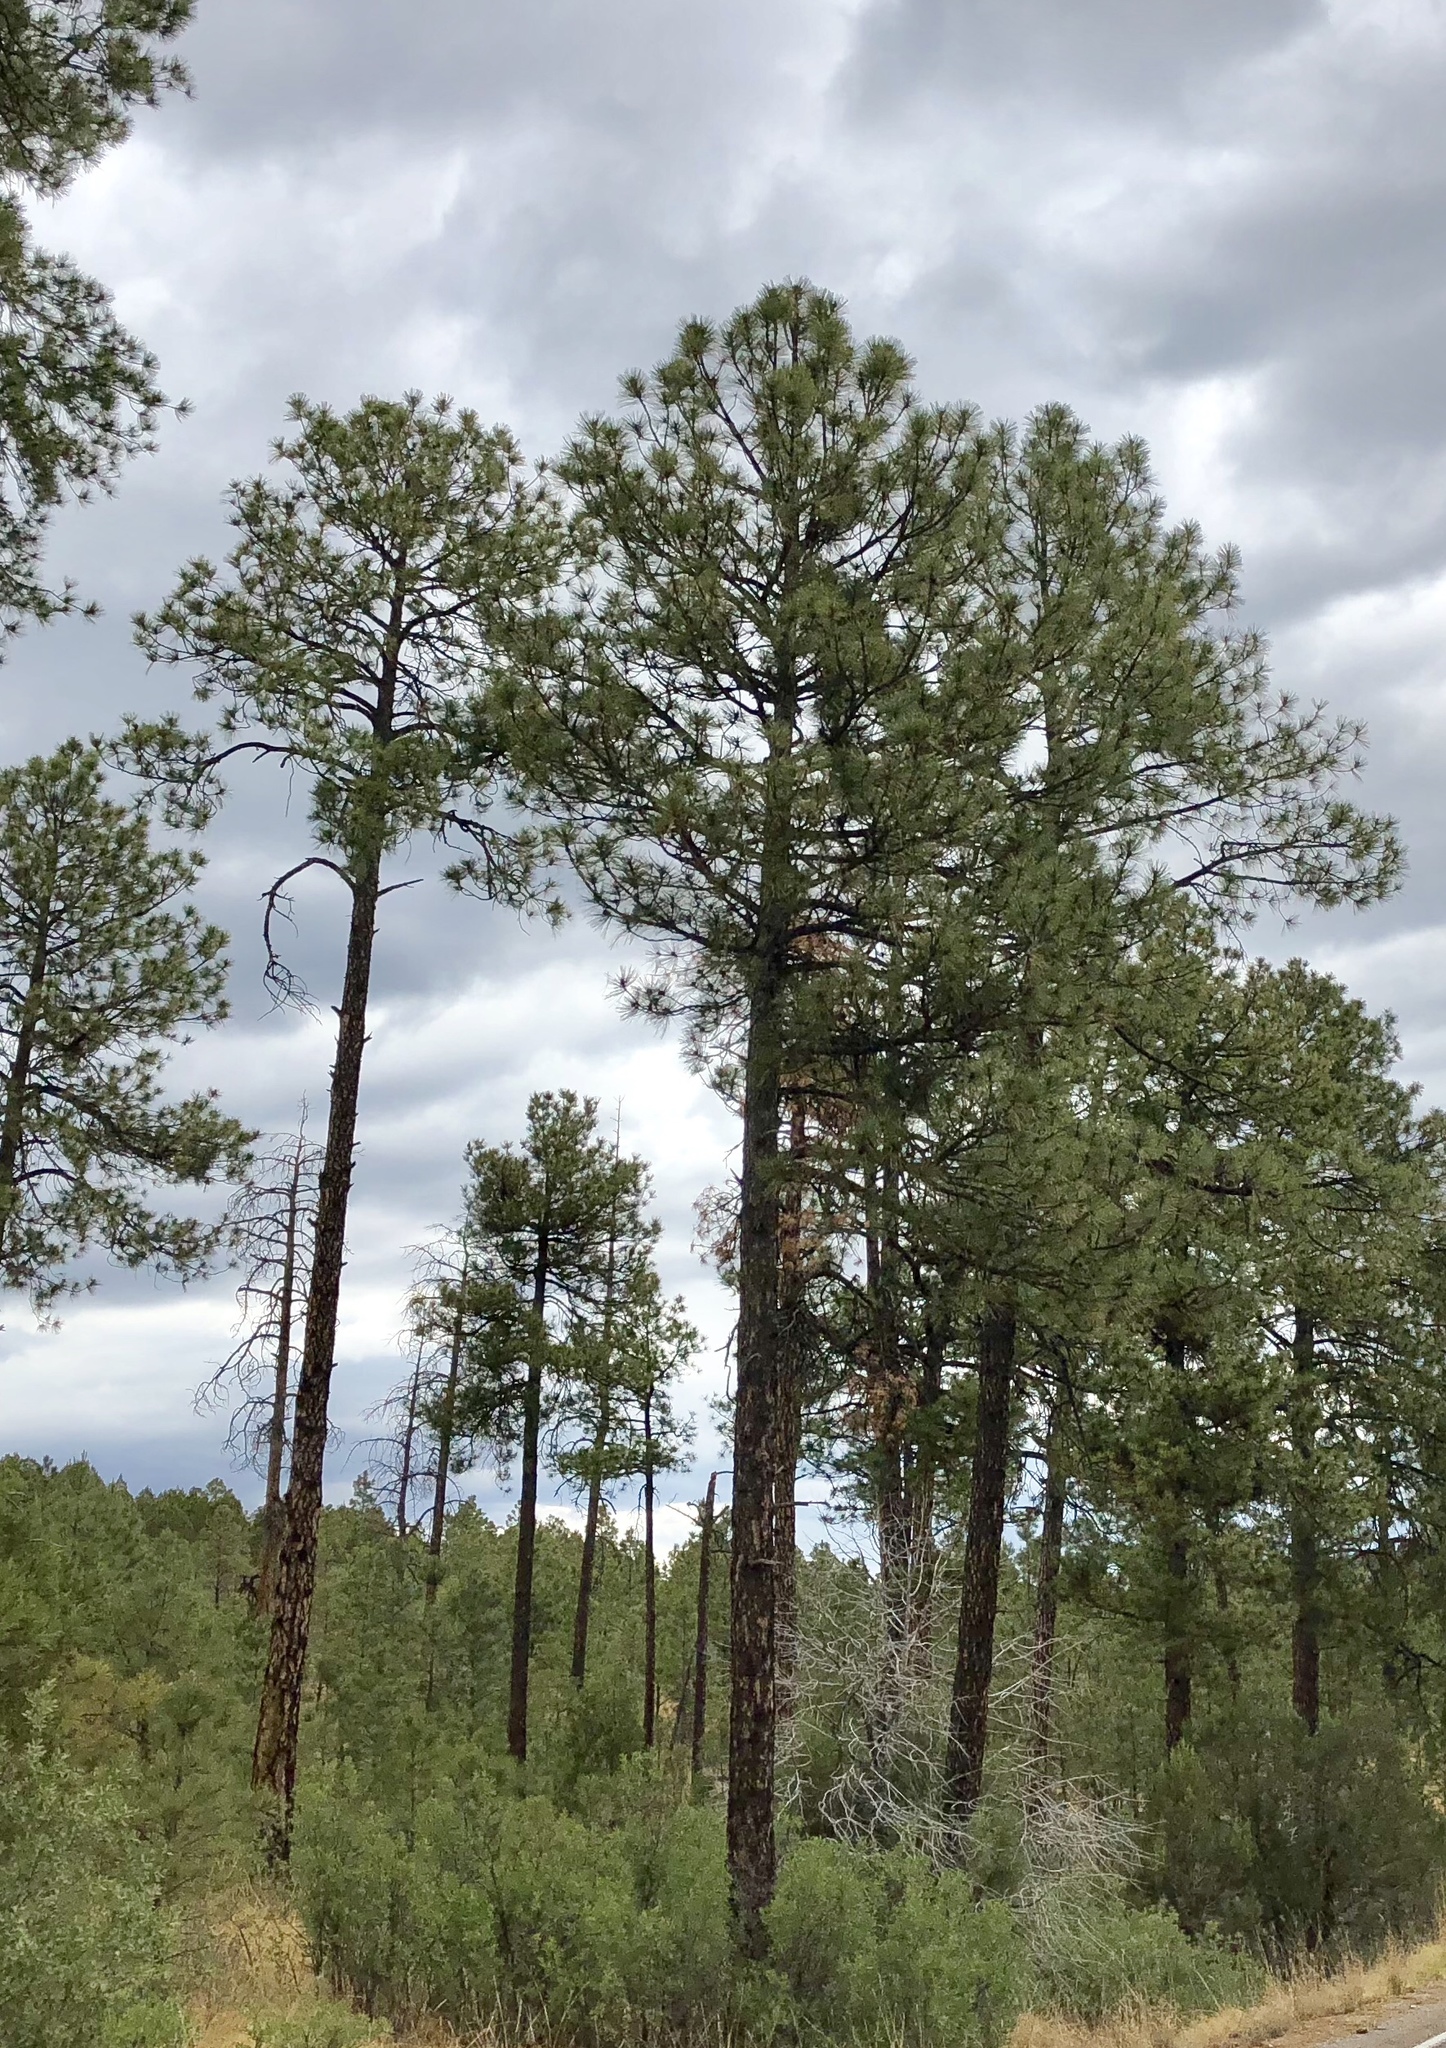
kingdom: Plantae
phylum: Tracheophyta
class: Pinopsida
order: Pinales
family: Pinaceae
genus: Pinus
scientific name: Pinus ponderosa
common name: Western yellow-pine
